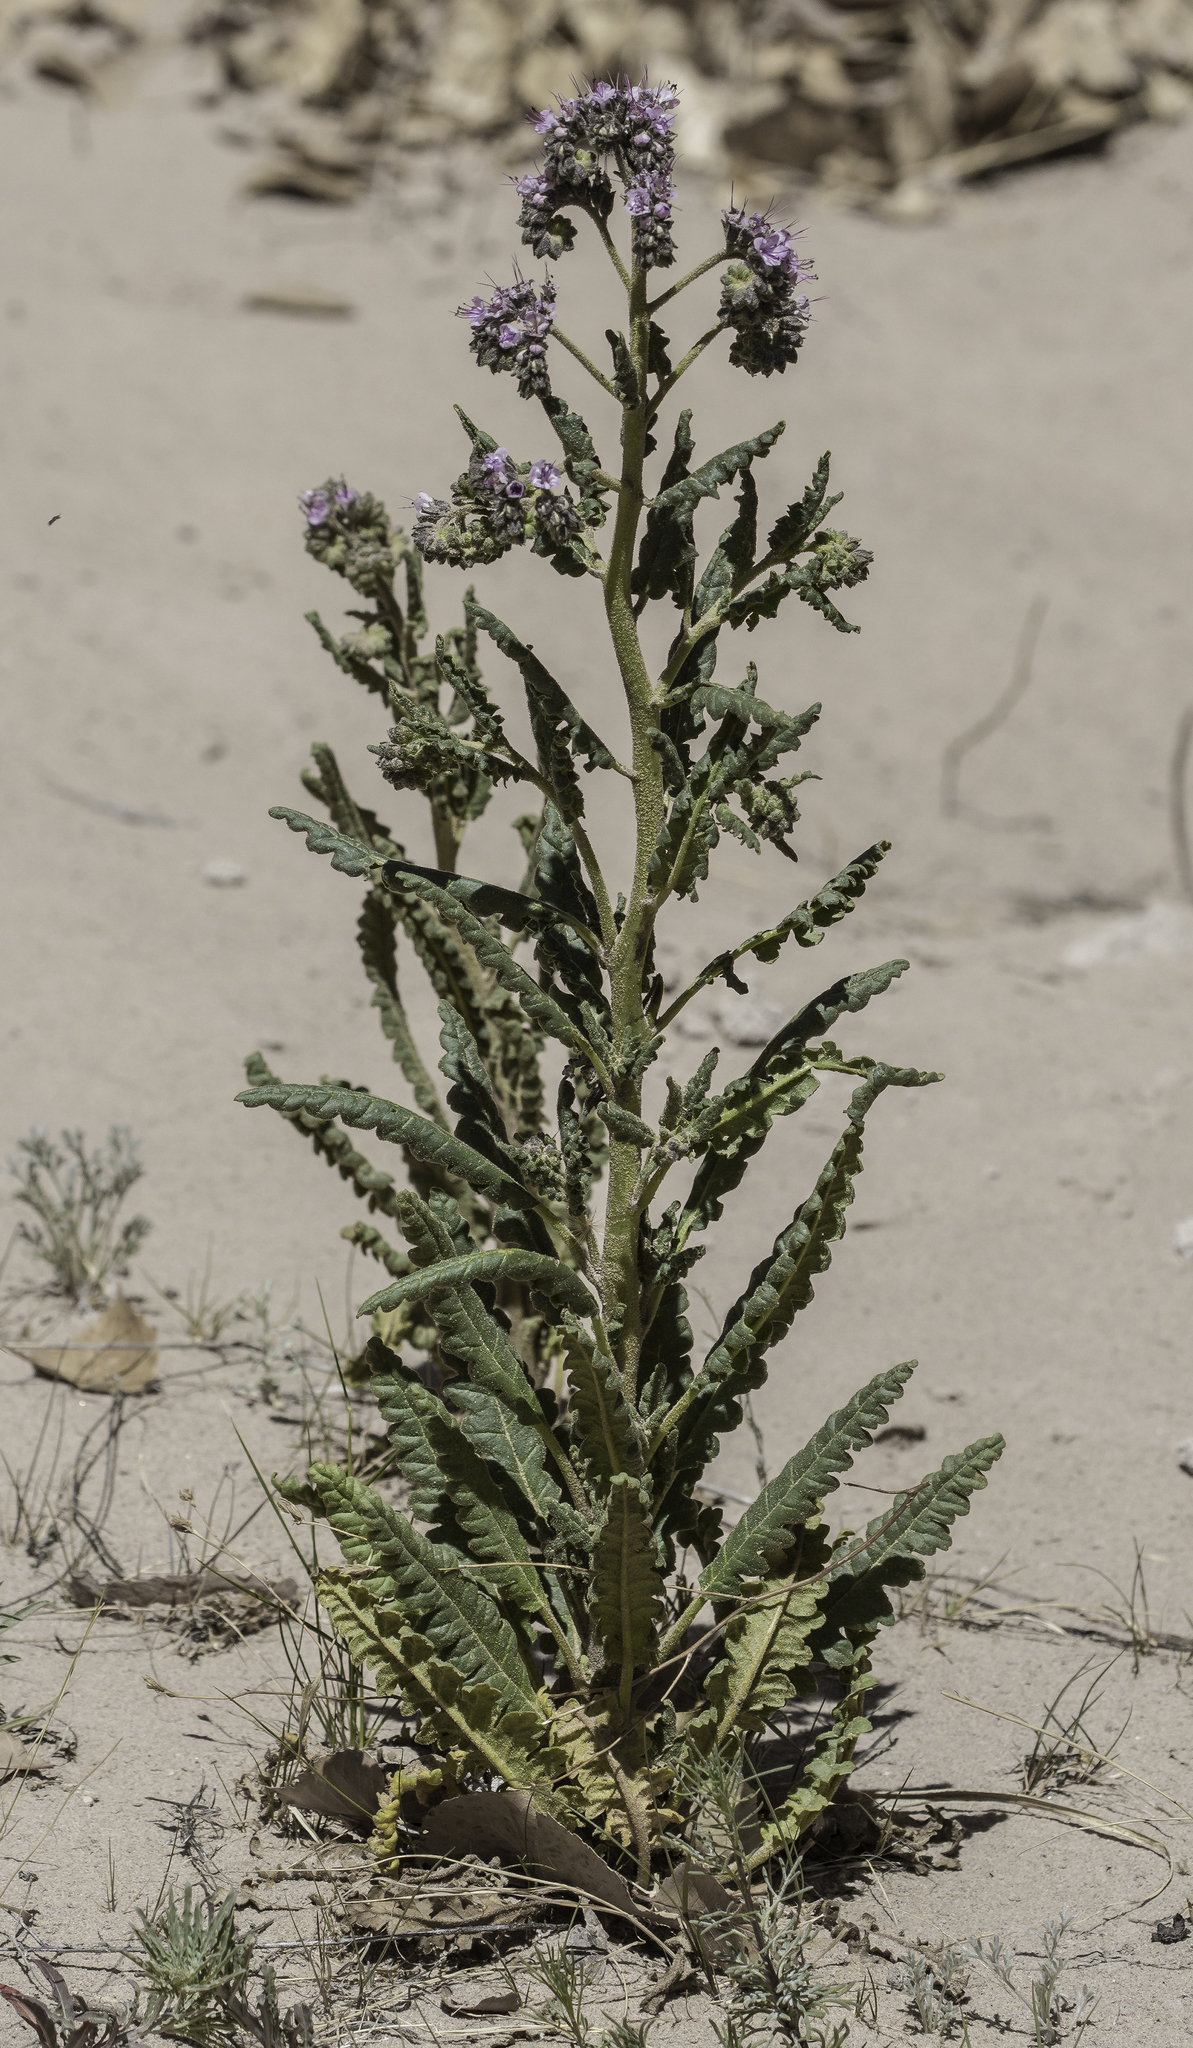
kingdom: Plantae
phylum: Tracheophyta
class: Magnoliopsida
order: Boraginales
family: Hydrophyllaceae
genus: Phacelia
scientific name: Phacelia integrifolia
